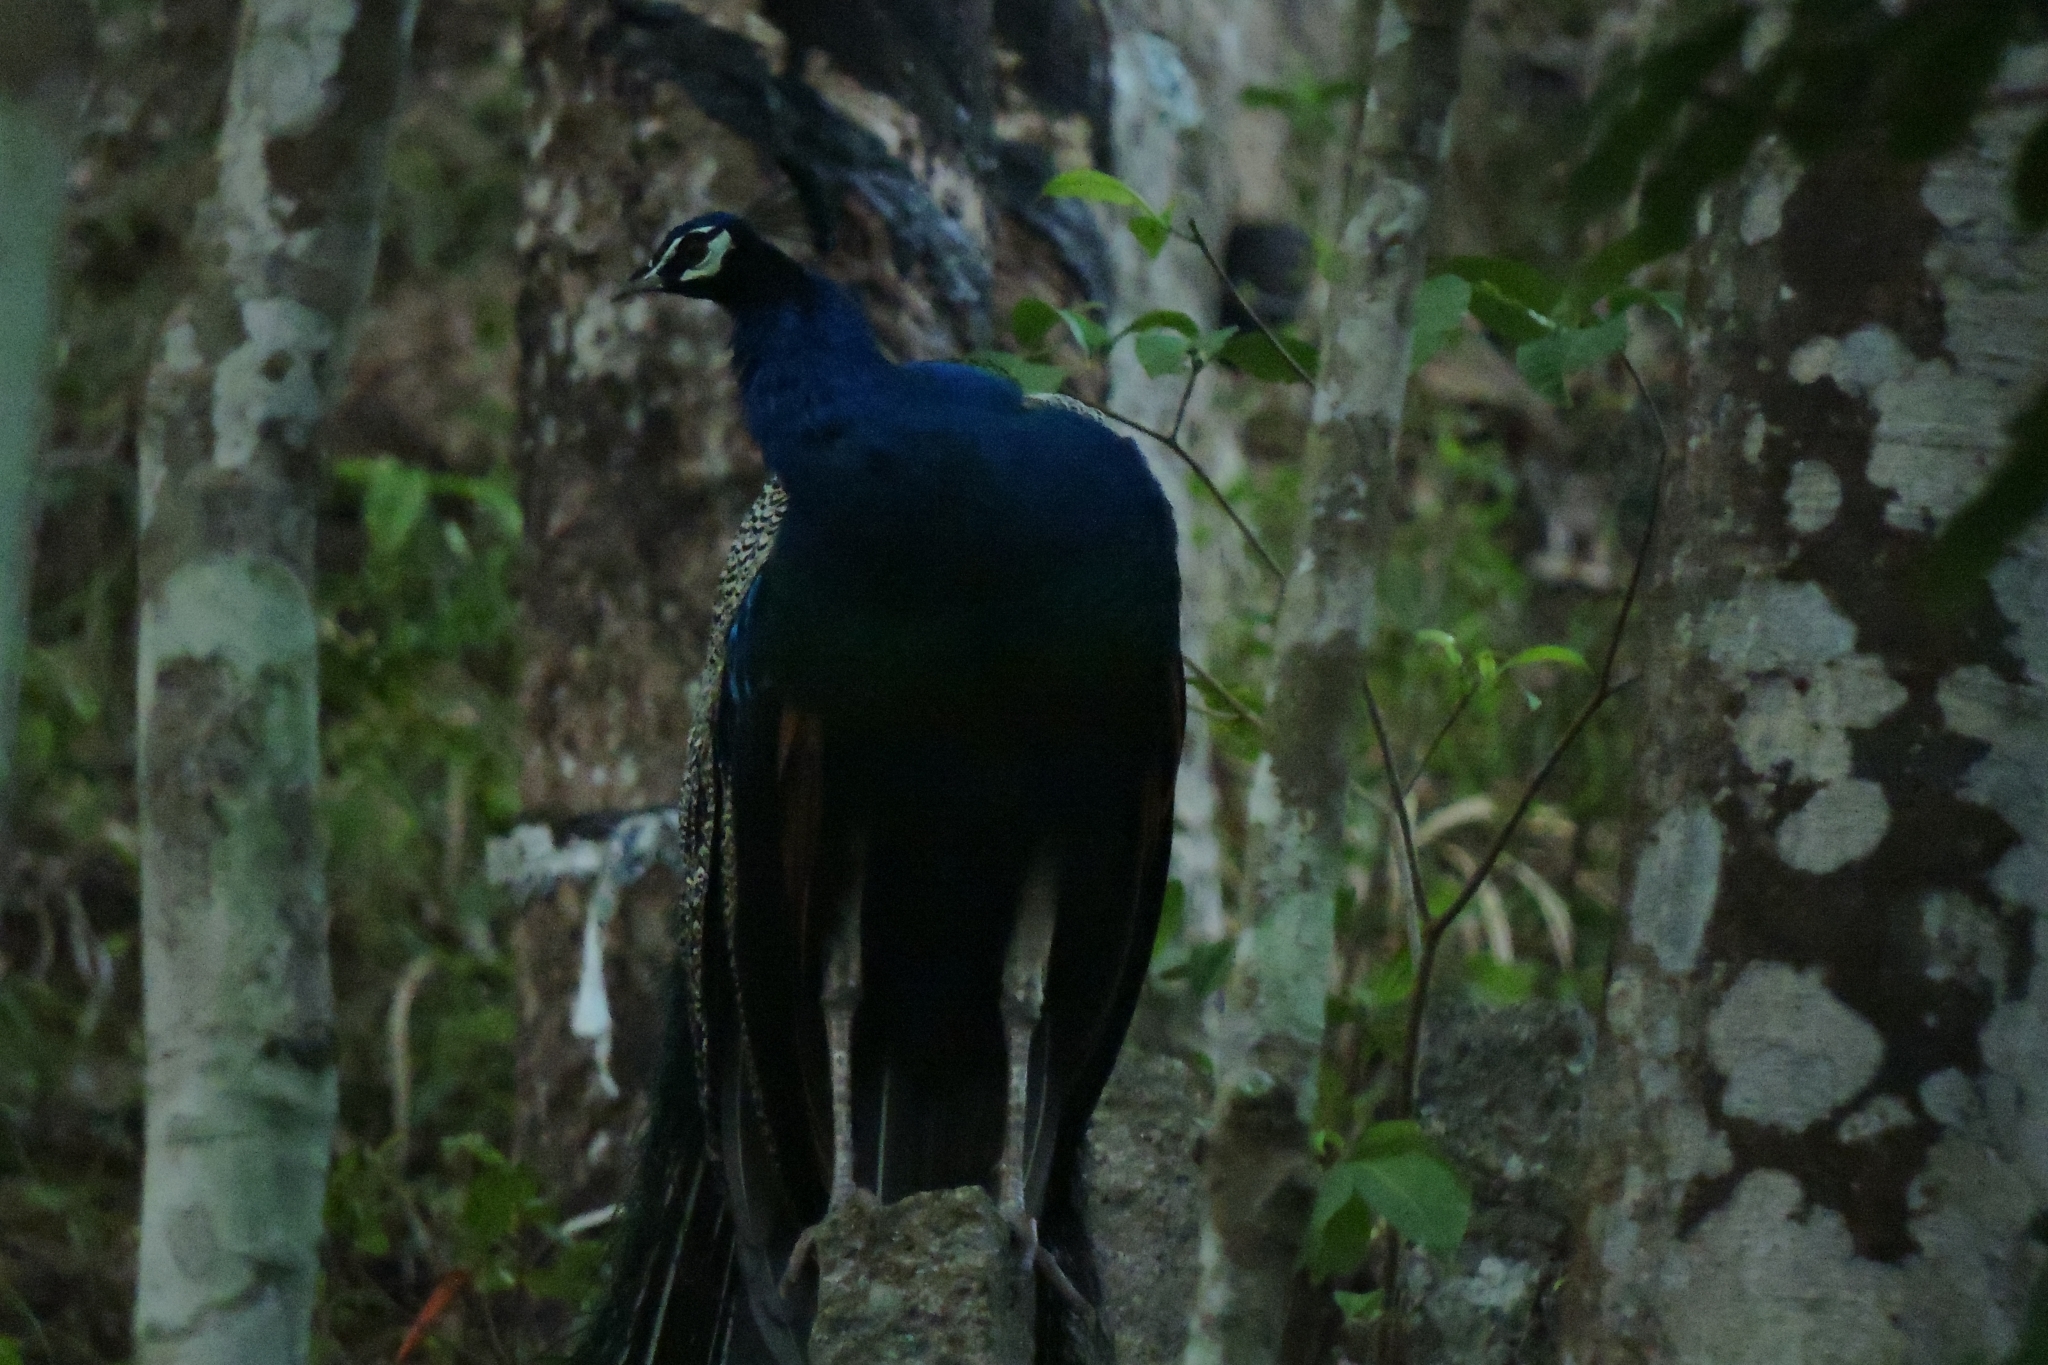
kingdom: Animalia
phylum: Chordata
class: Aves
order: Galliformes
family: Phasianidae
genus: Pavo
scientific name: Pavo cristatus
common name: Indian peafowl
